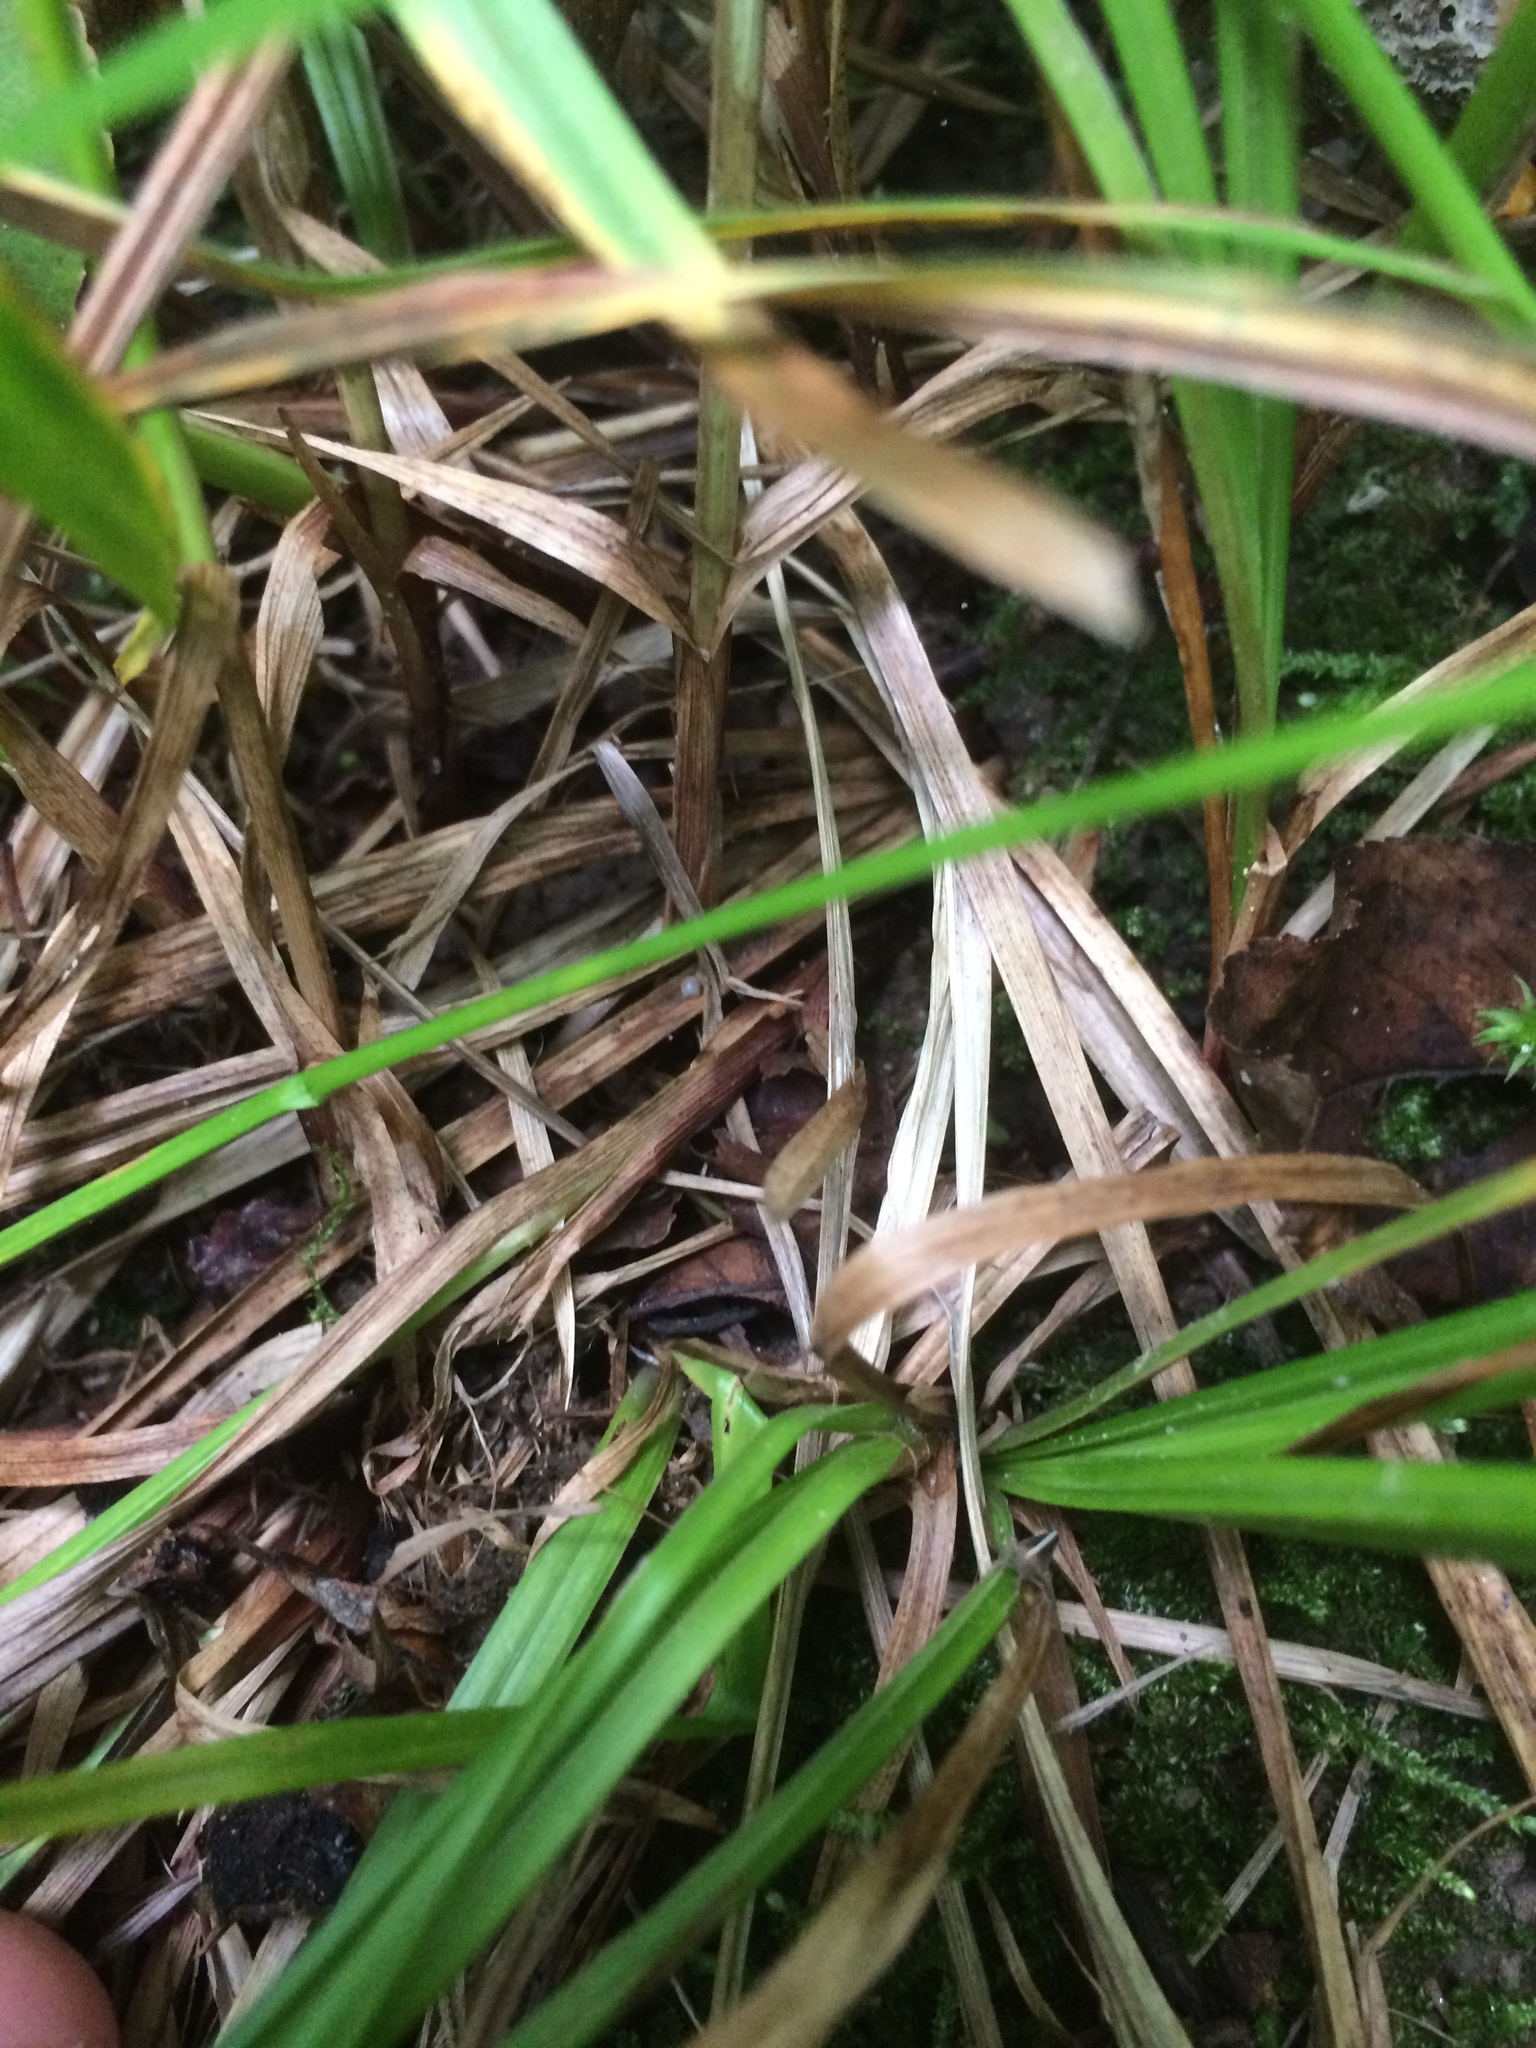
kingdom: Plantae
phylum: Tracheophyta
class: Liliopsida
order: Poales
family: Cyperaceae
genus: Carex
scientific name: Carex debilis
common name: White-edge sedge
